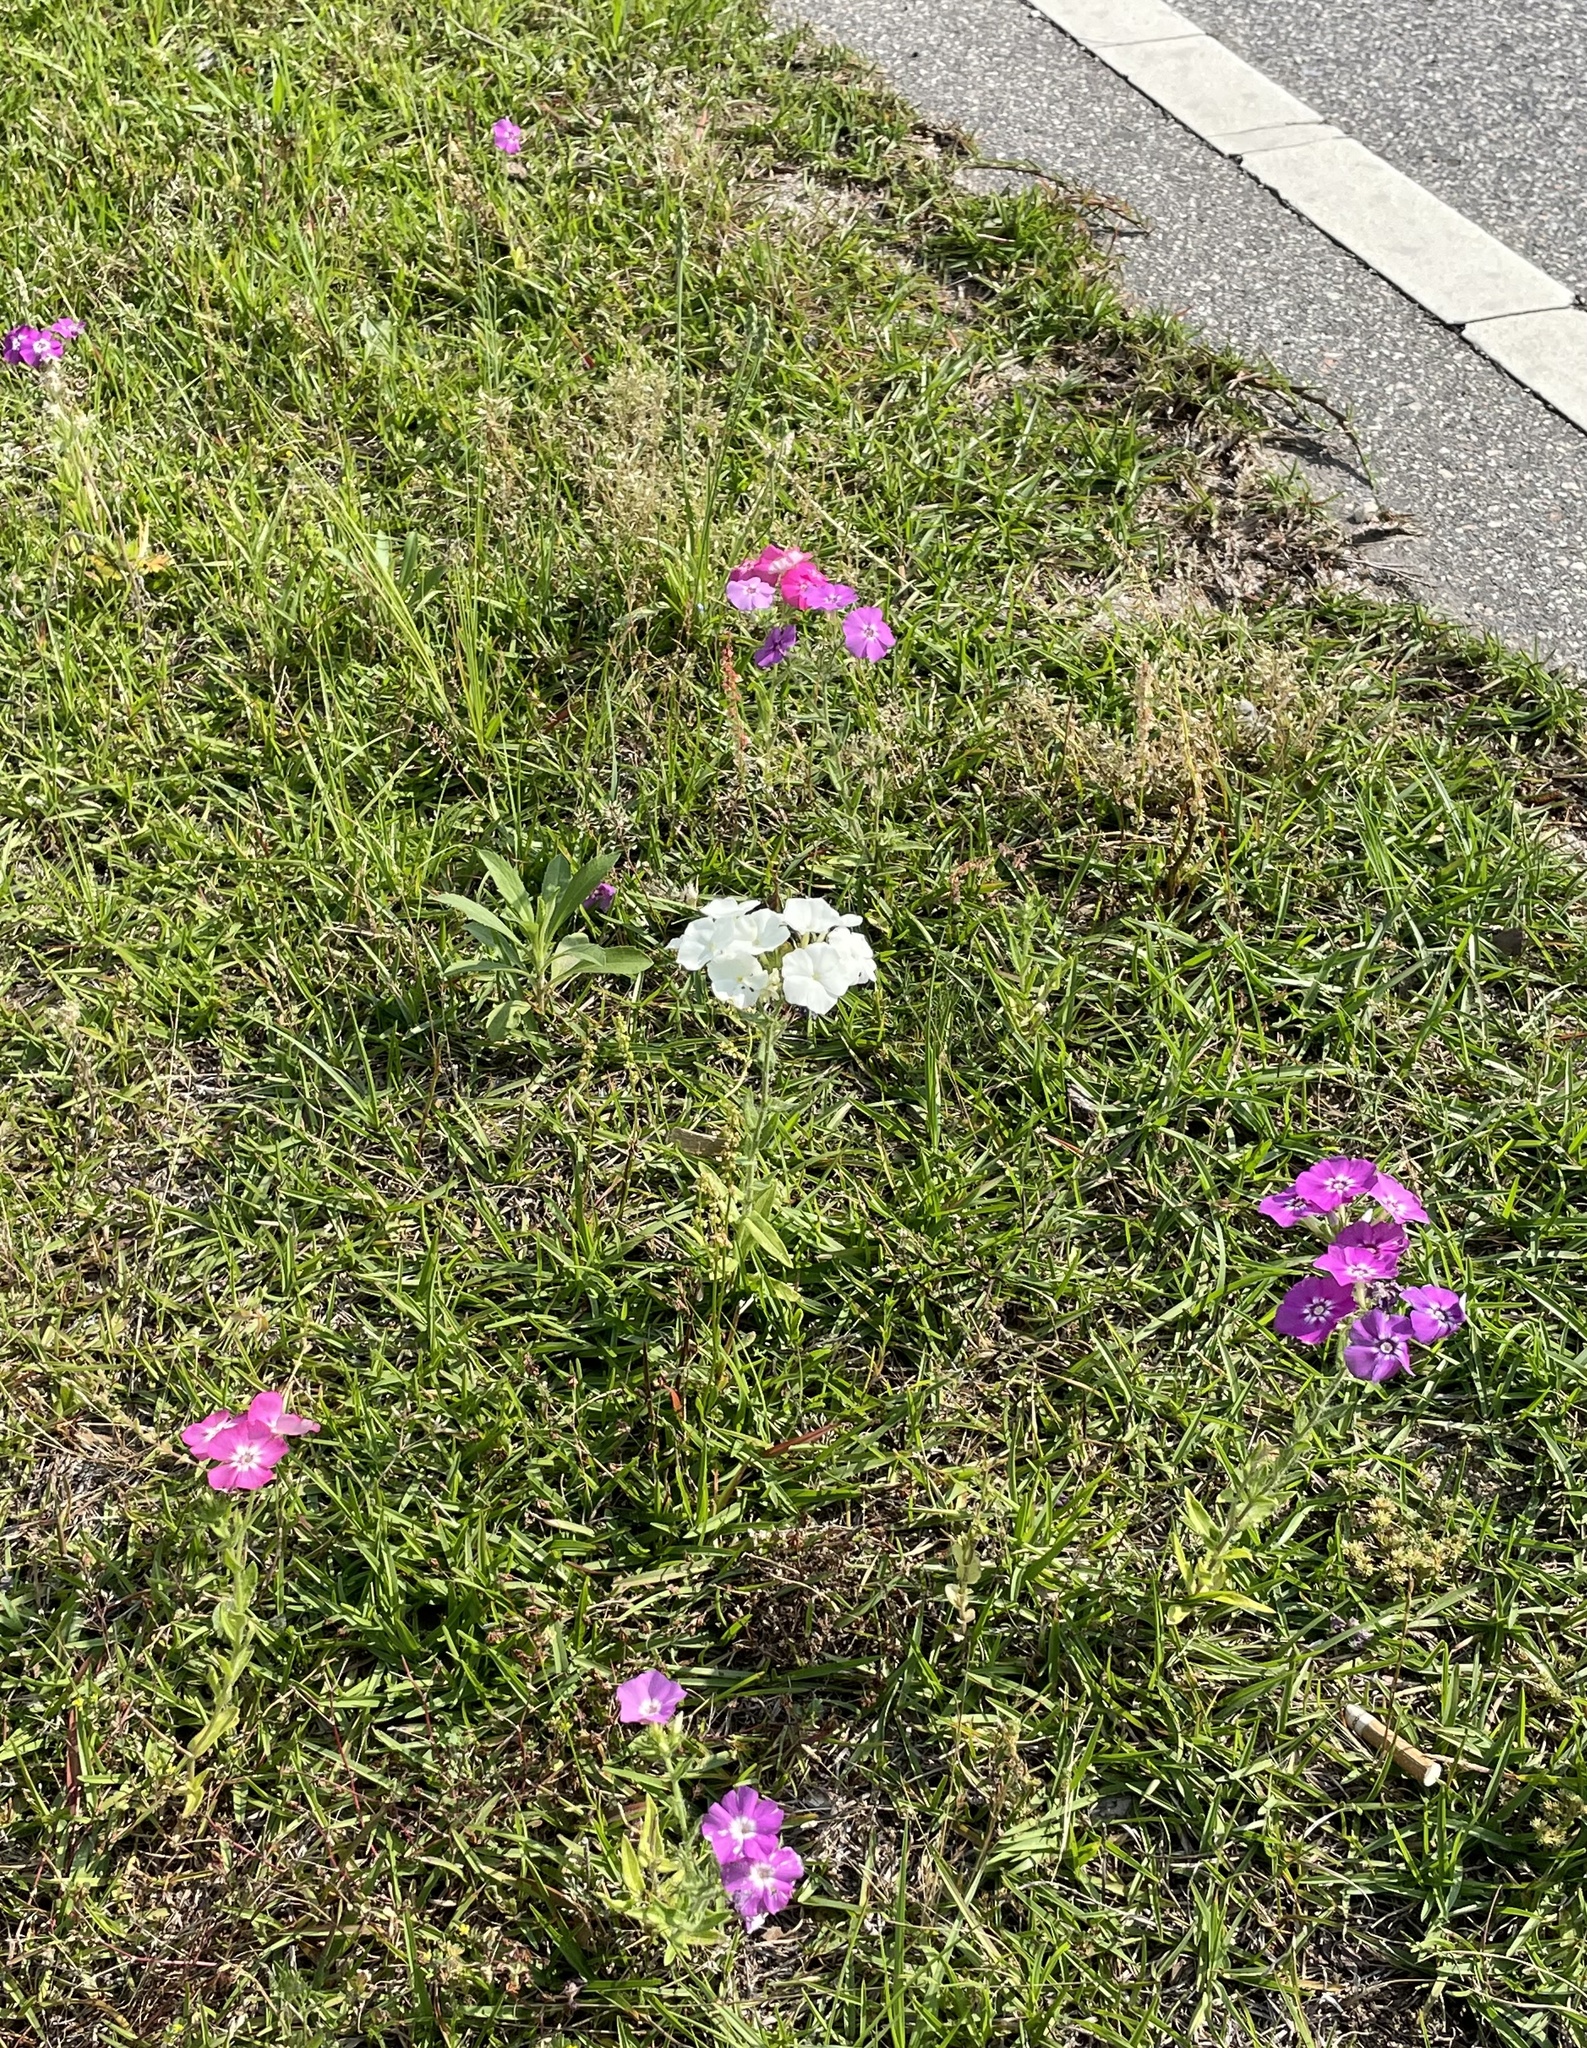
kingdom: Plantae
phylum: Tracheophyta
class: Magnoliopsida
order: Ericales
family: Polemoniaceae
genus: Phlox
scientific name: Phlox drummondii
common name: Drummond's phlox
